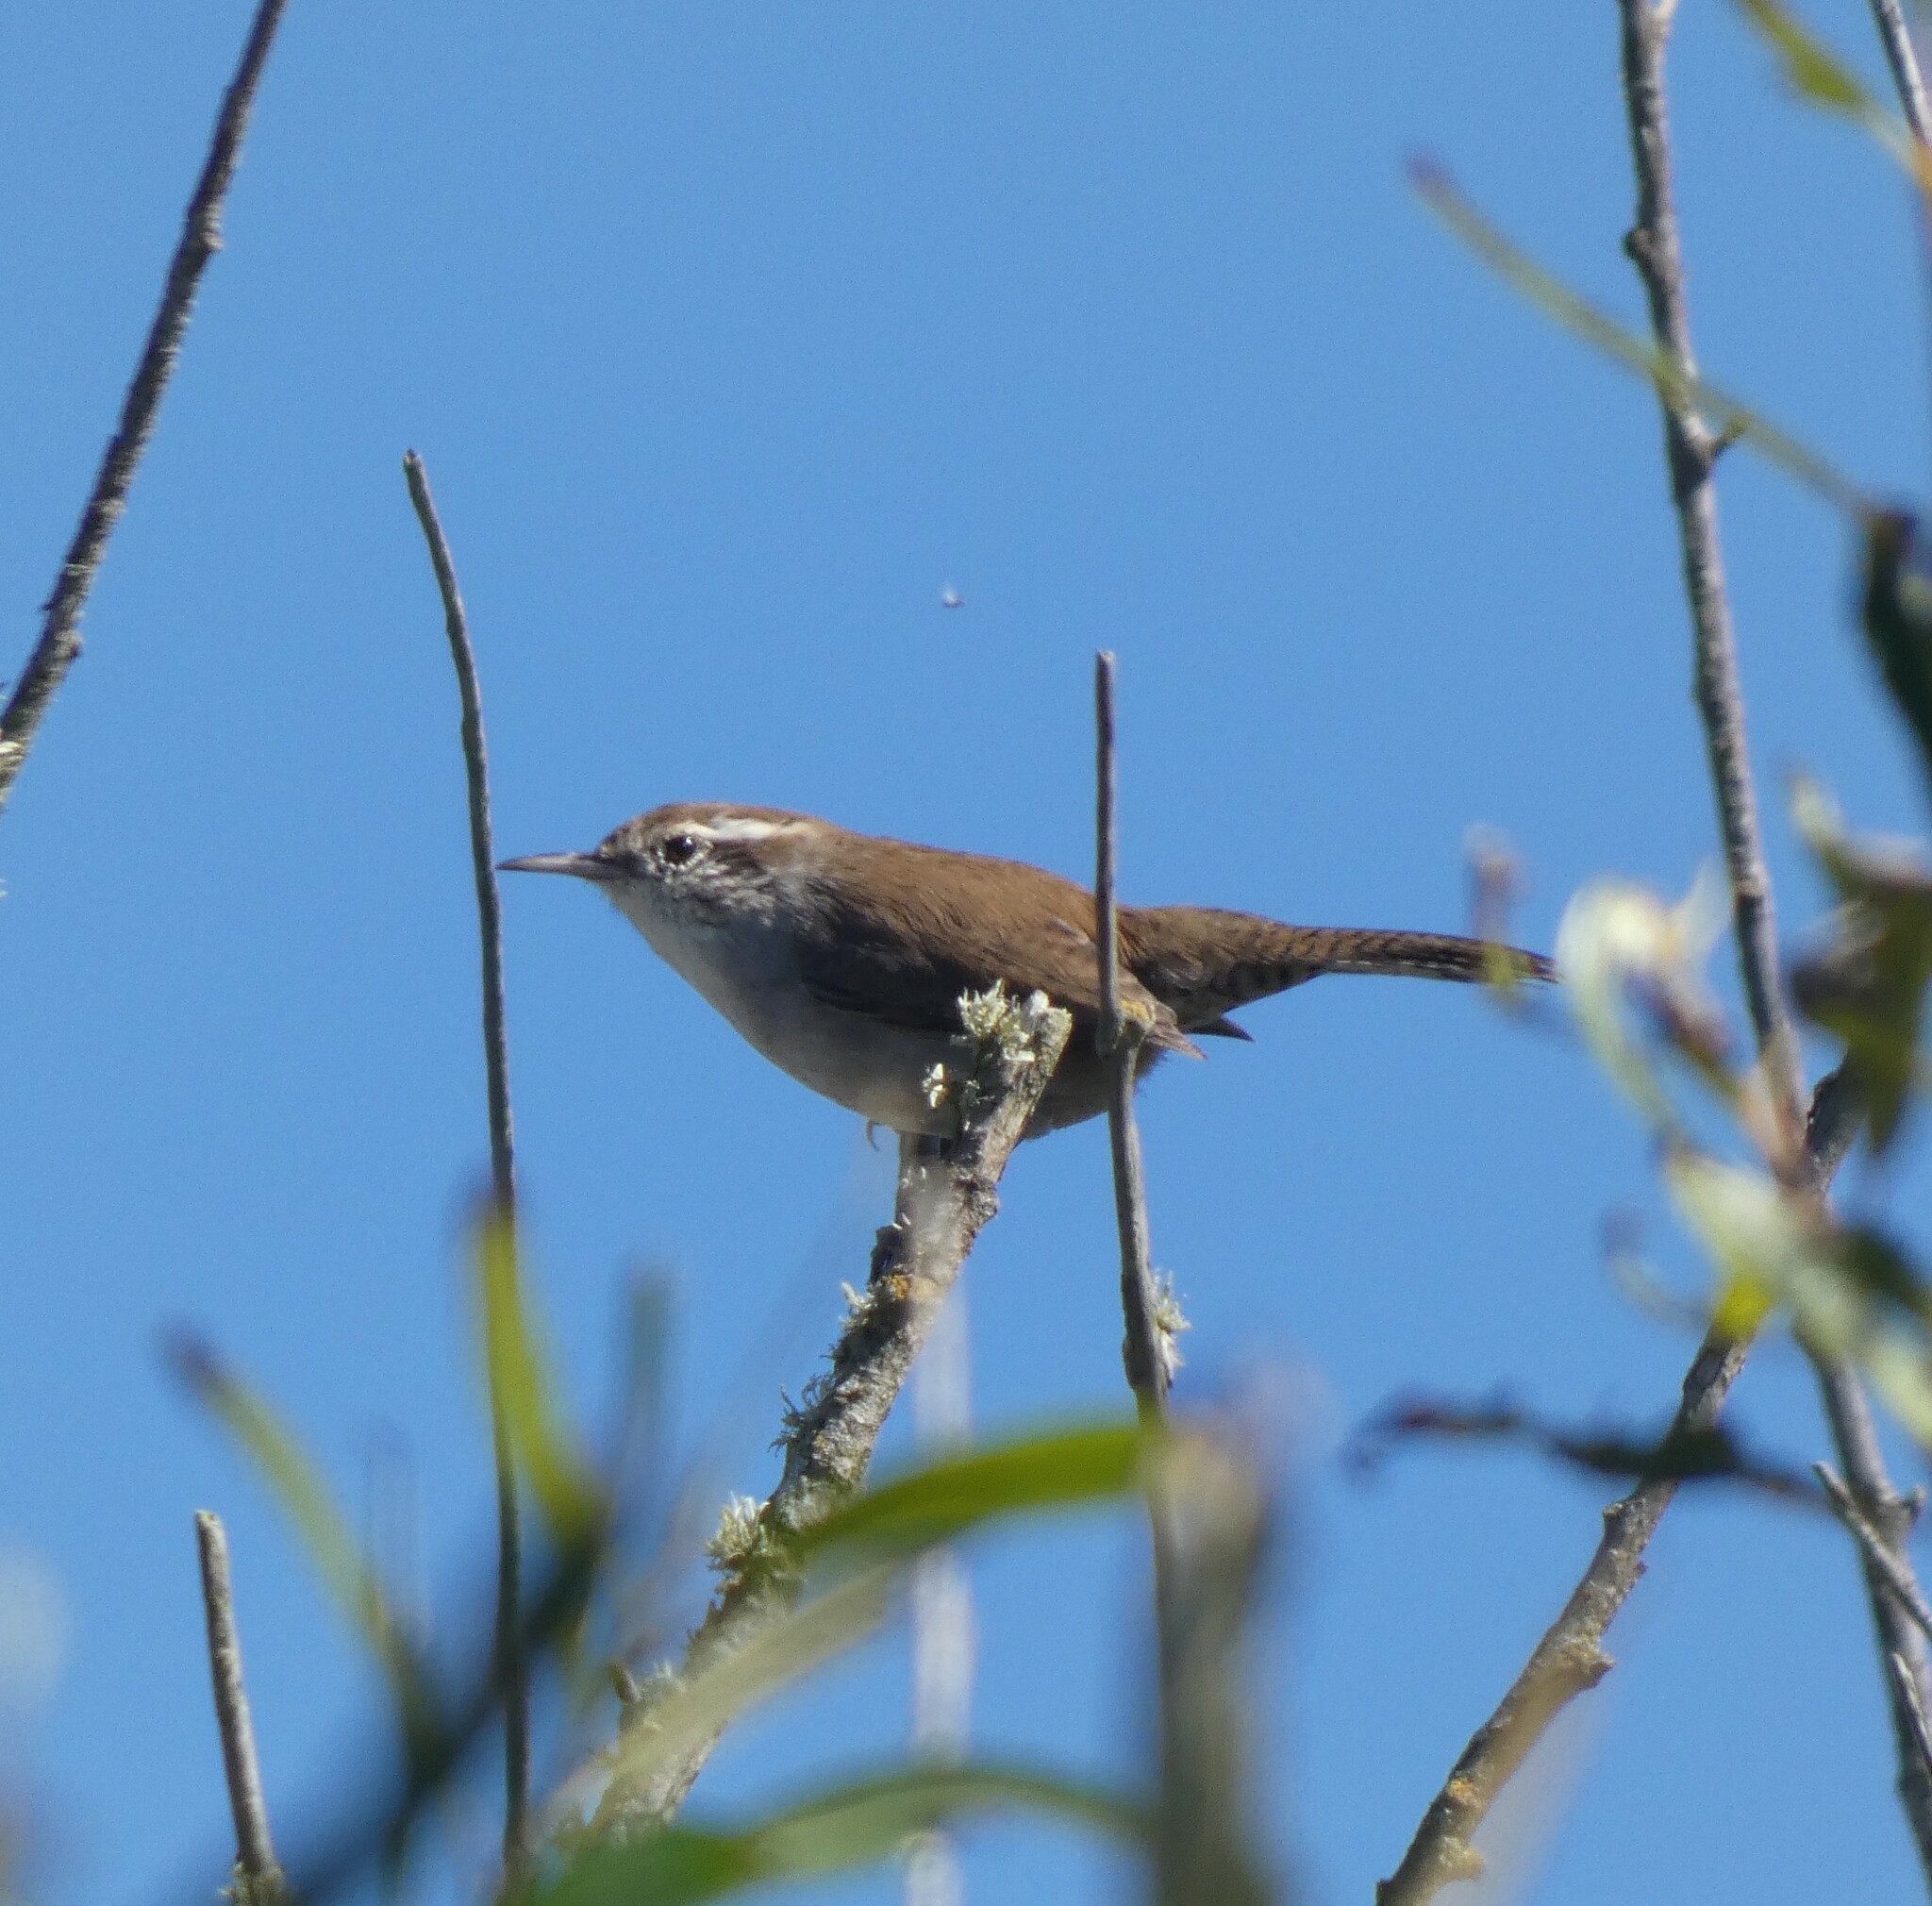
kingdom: Animalia
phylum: Chordata
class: Aves
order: Passeriformes
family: Troglodytidae
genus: Thryomanes
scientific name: Thryomanes bewickii
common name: Bewick's wren
